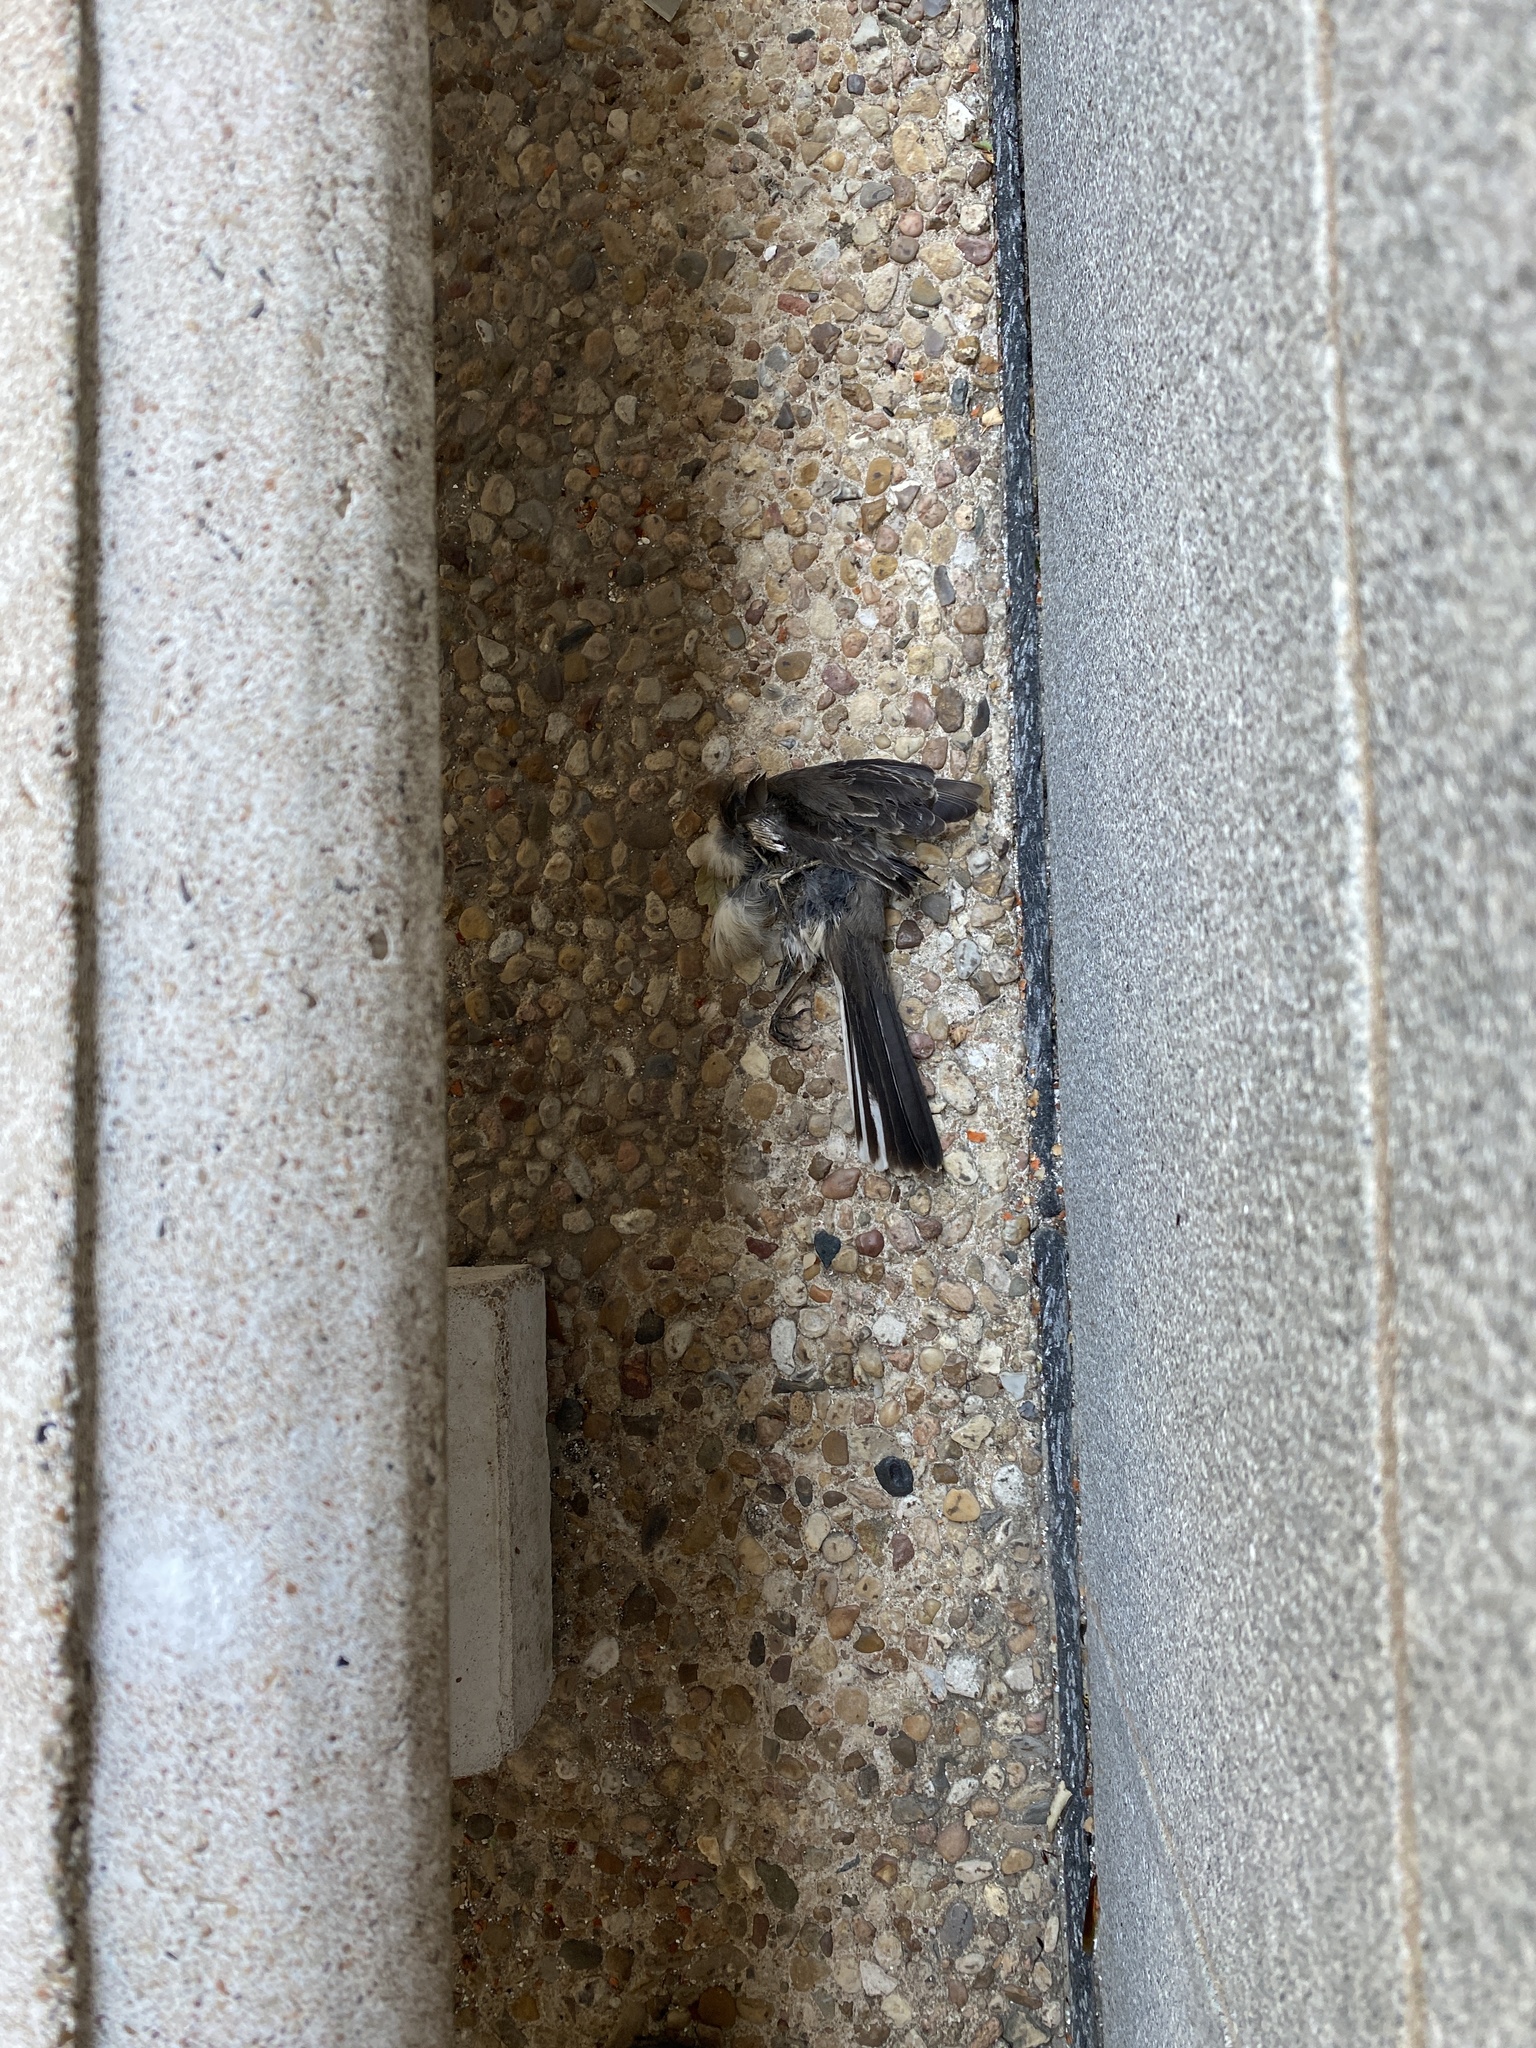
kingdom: Animalia
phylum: Chordata
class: Aves
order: Passeriformes
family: Mimidae
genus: Mimus
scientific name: Mimus polyglottos
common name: Northern mockingbird
